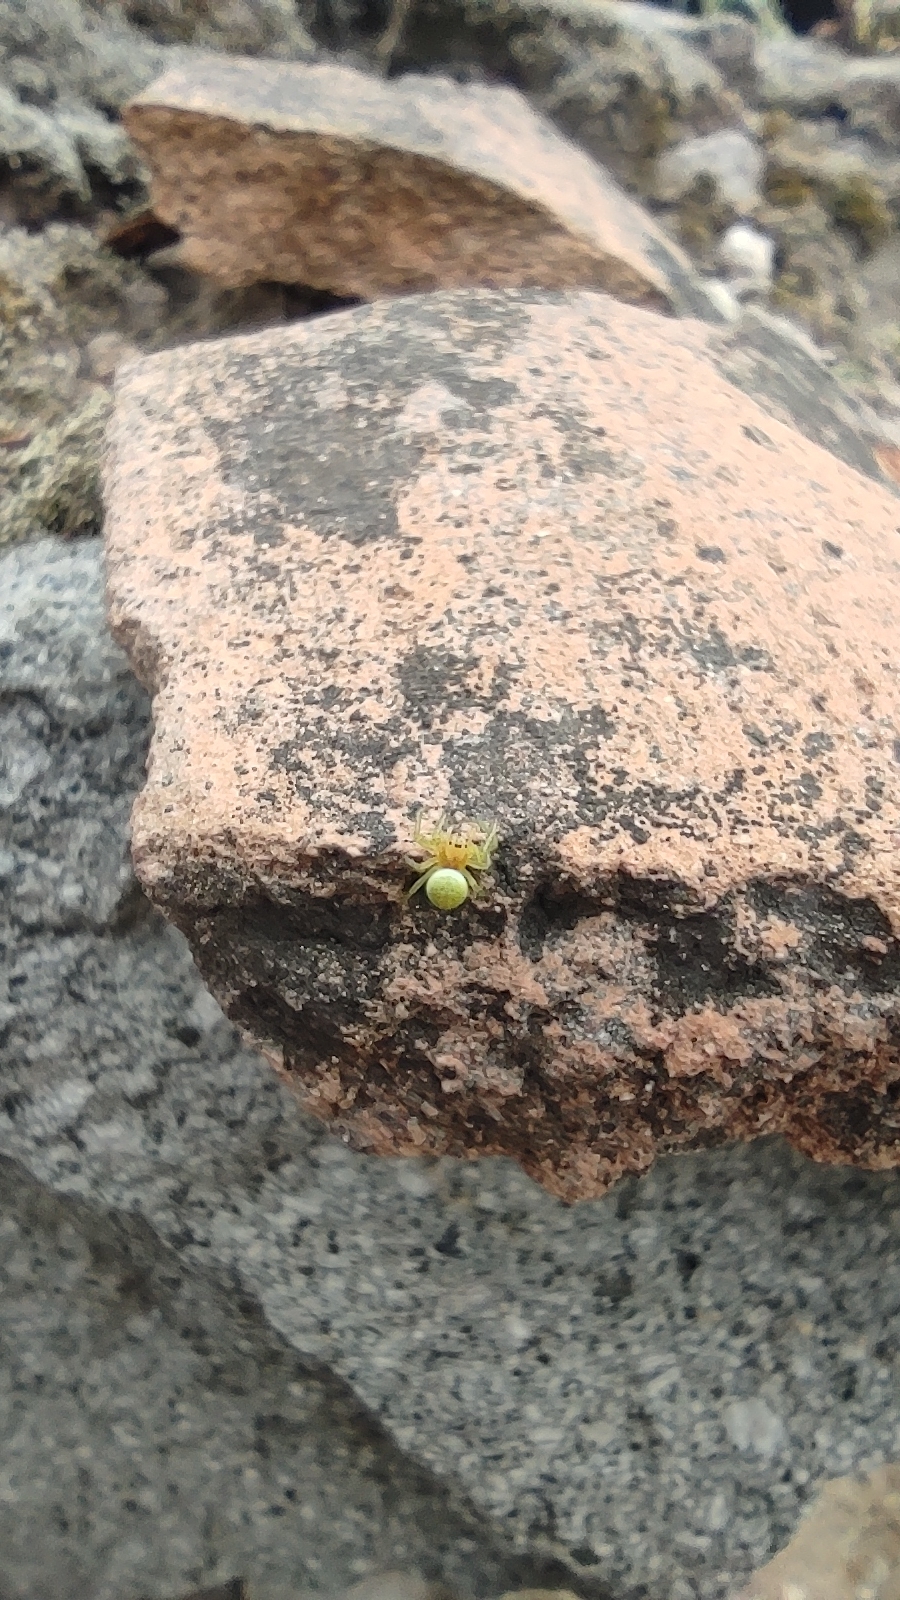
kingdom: Animalia
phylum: Arthropoda
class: Arachnida
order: Araneae
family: Araneidae
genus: Araniella
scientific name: Araniella
